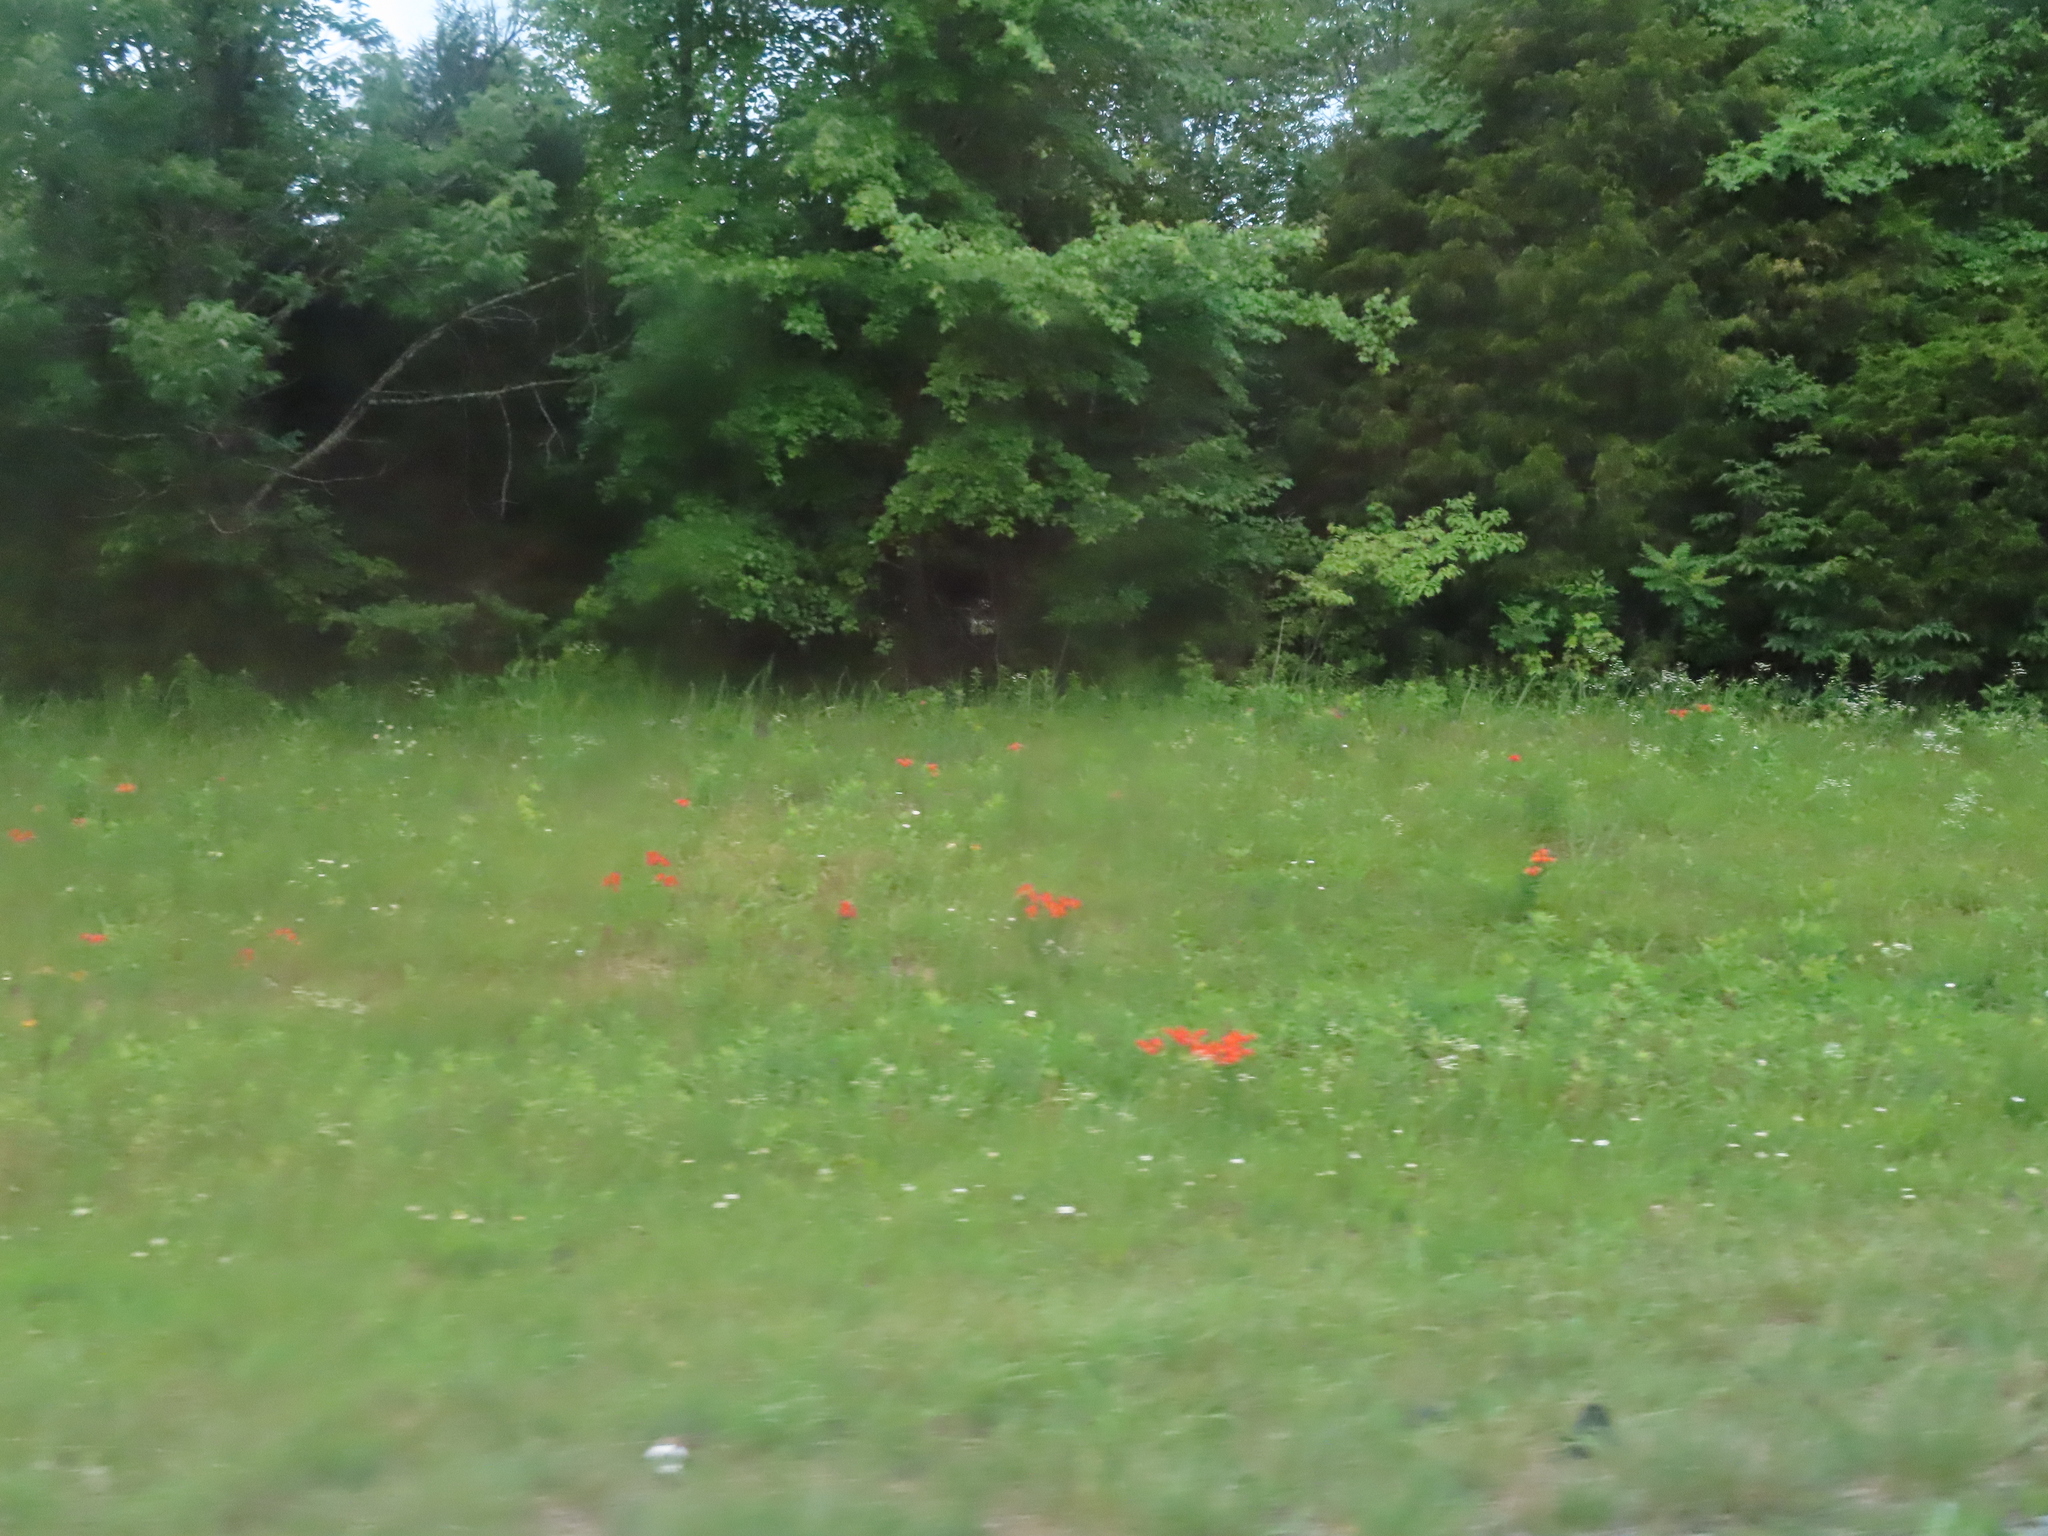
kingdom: Plantae
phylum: Tracheophyta
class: Magnoliopsida
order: Gentianales
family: Apocynaceae
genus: Asclepias
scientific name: Asclepias tuberosa
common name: Butterfly milkweed
